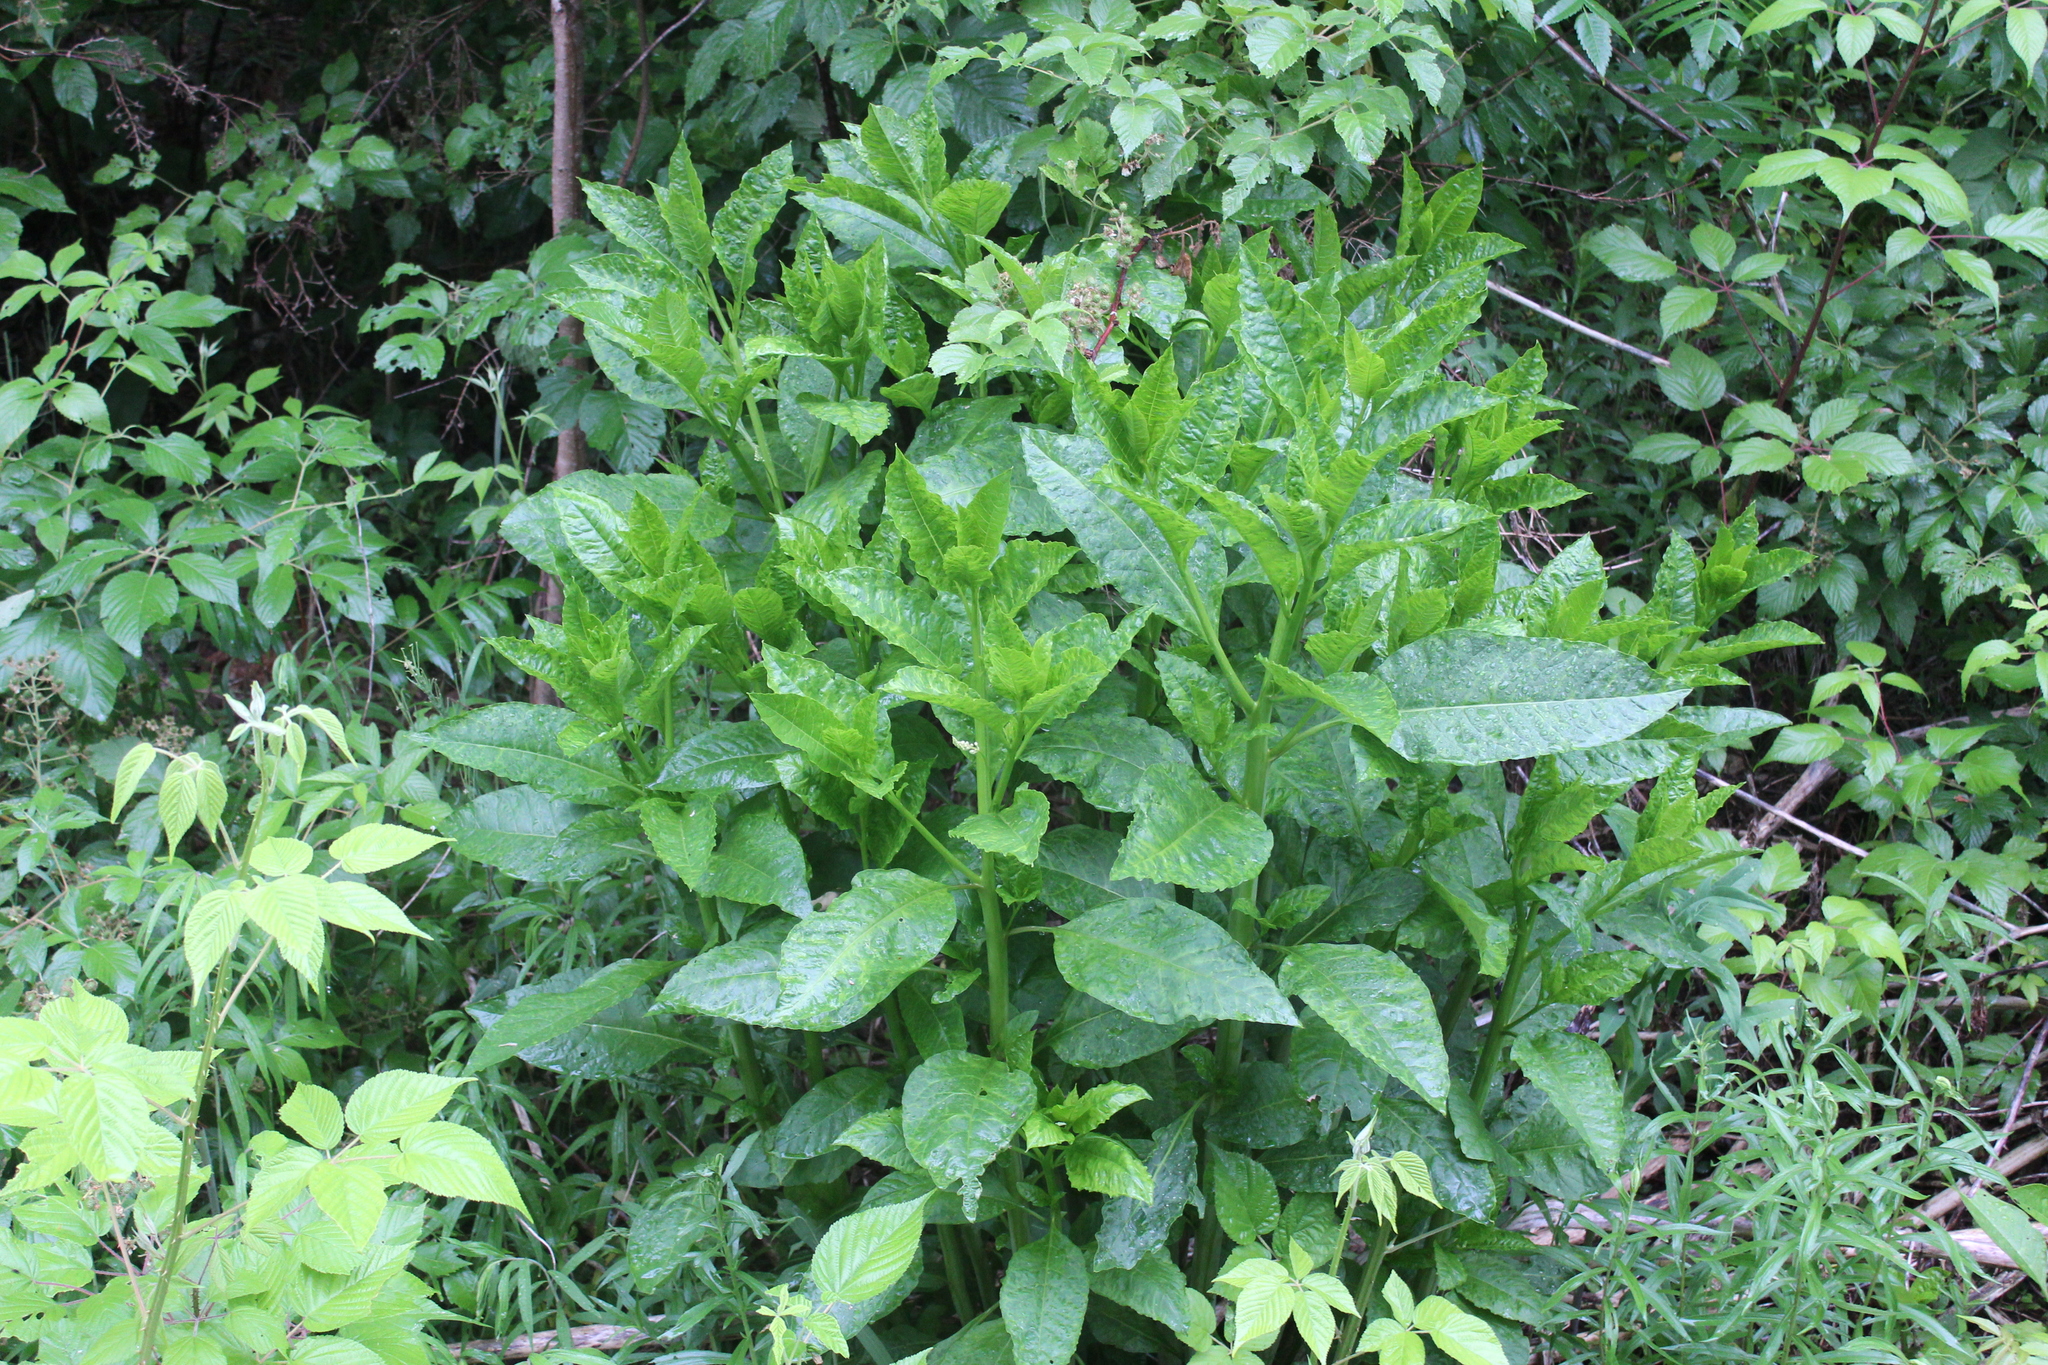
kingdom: Plantae
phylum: Tracheophyta
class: Magnoliopsida
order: Caryophyllales
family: Phytolaccaceae
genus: Phytolacca
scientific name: Phytolacca americana
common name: American pokeweed
